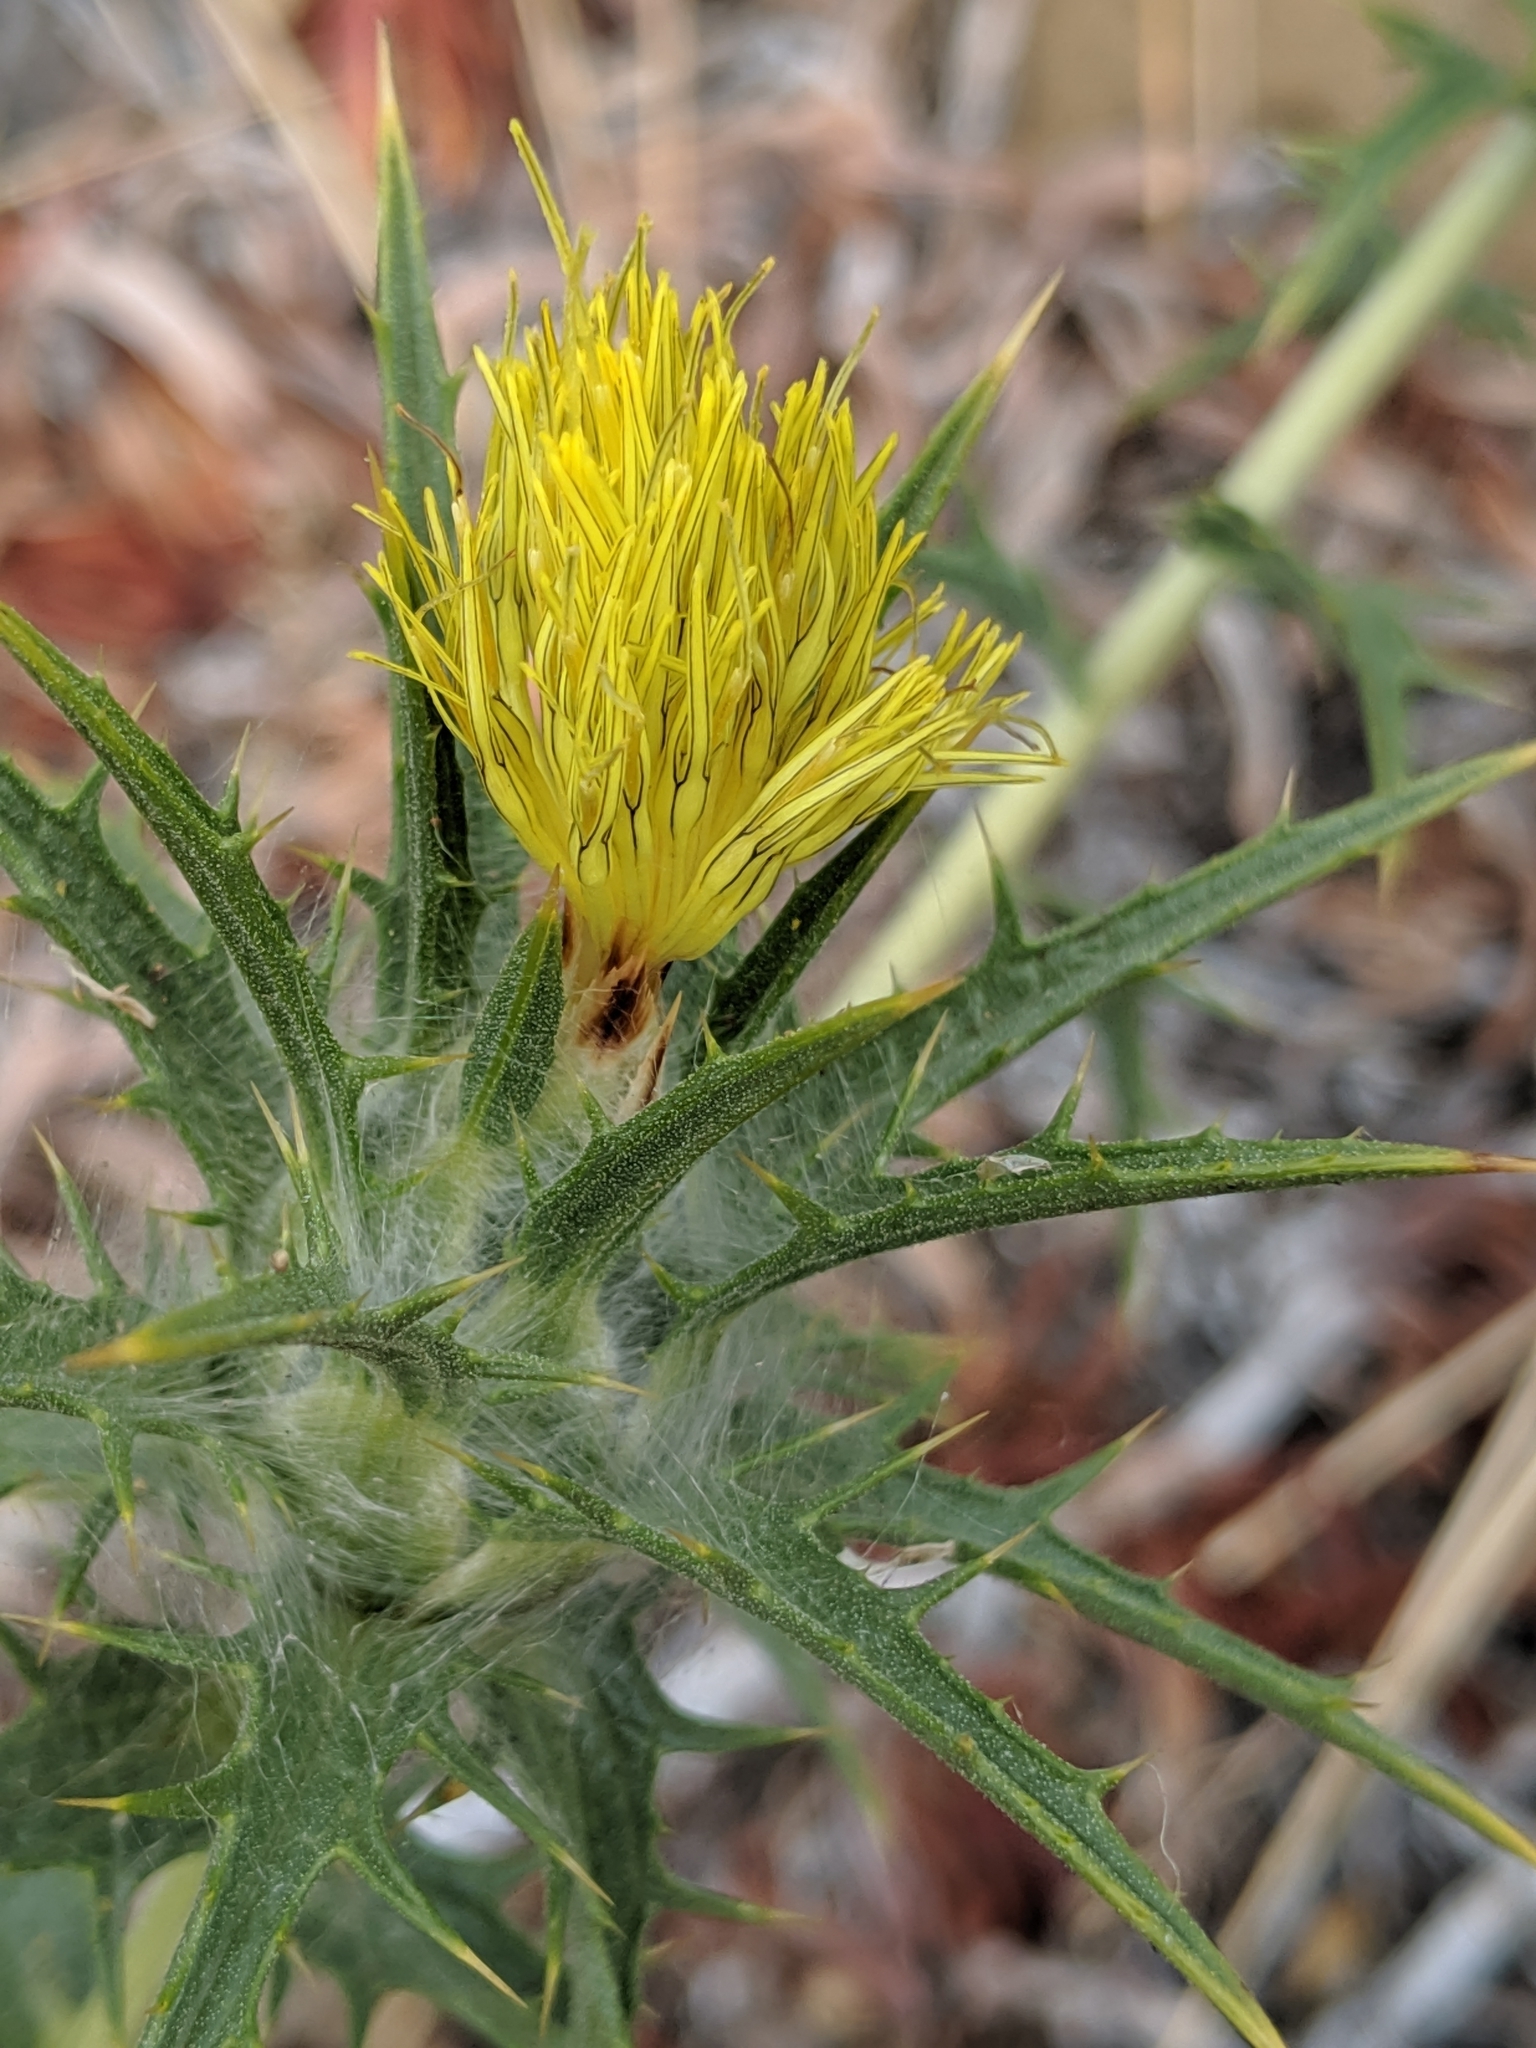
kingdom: Plantae
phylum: Tracheophyta
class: Magnoliopsida
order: Asterales
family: Asteraceae
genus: Carthamus
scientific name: Carthamus lanatus
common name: Downy safflower
